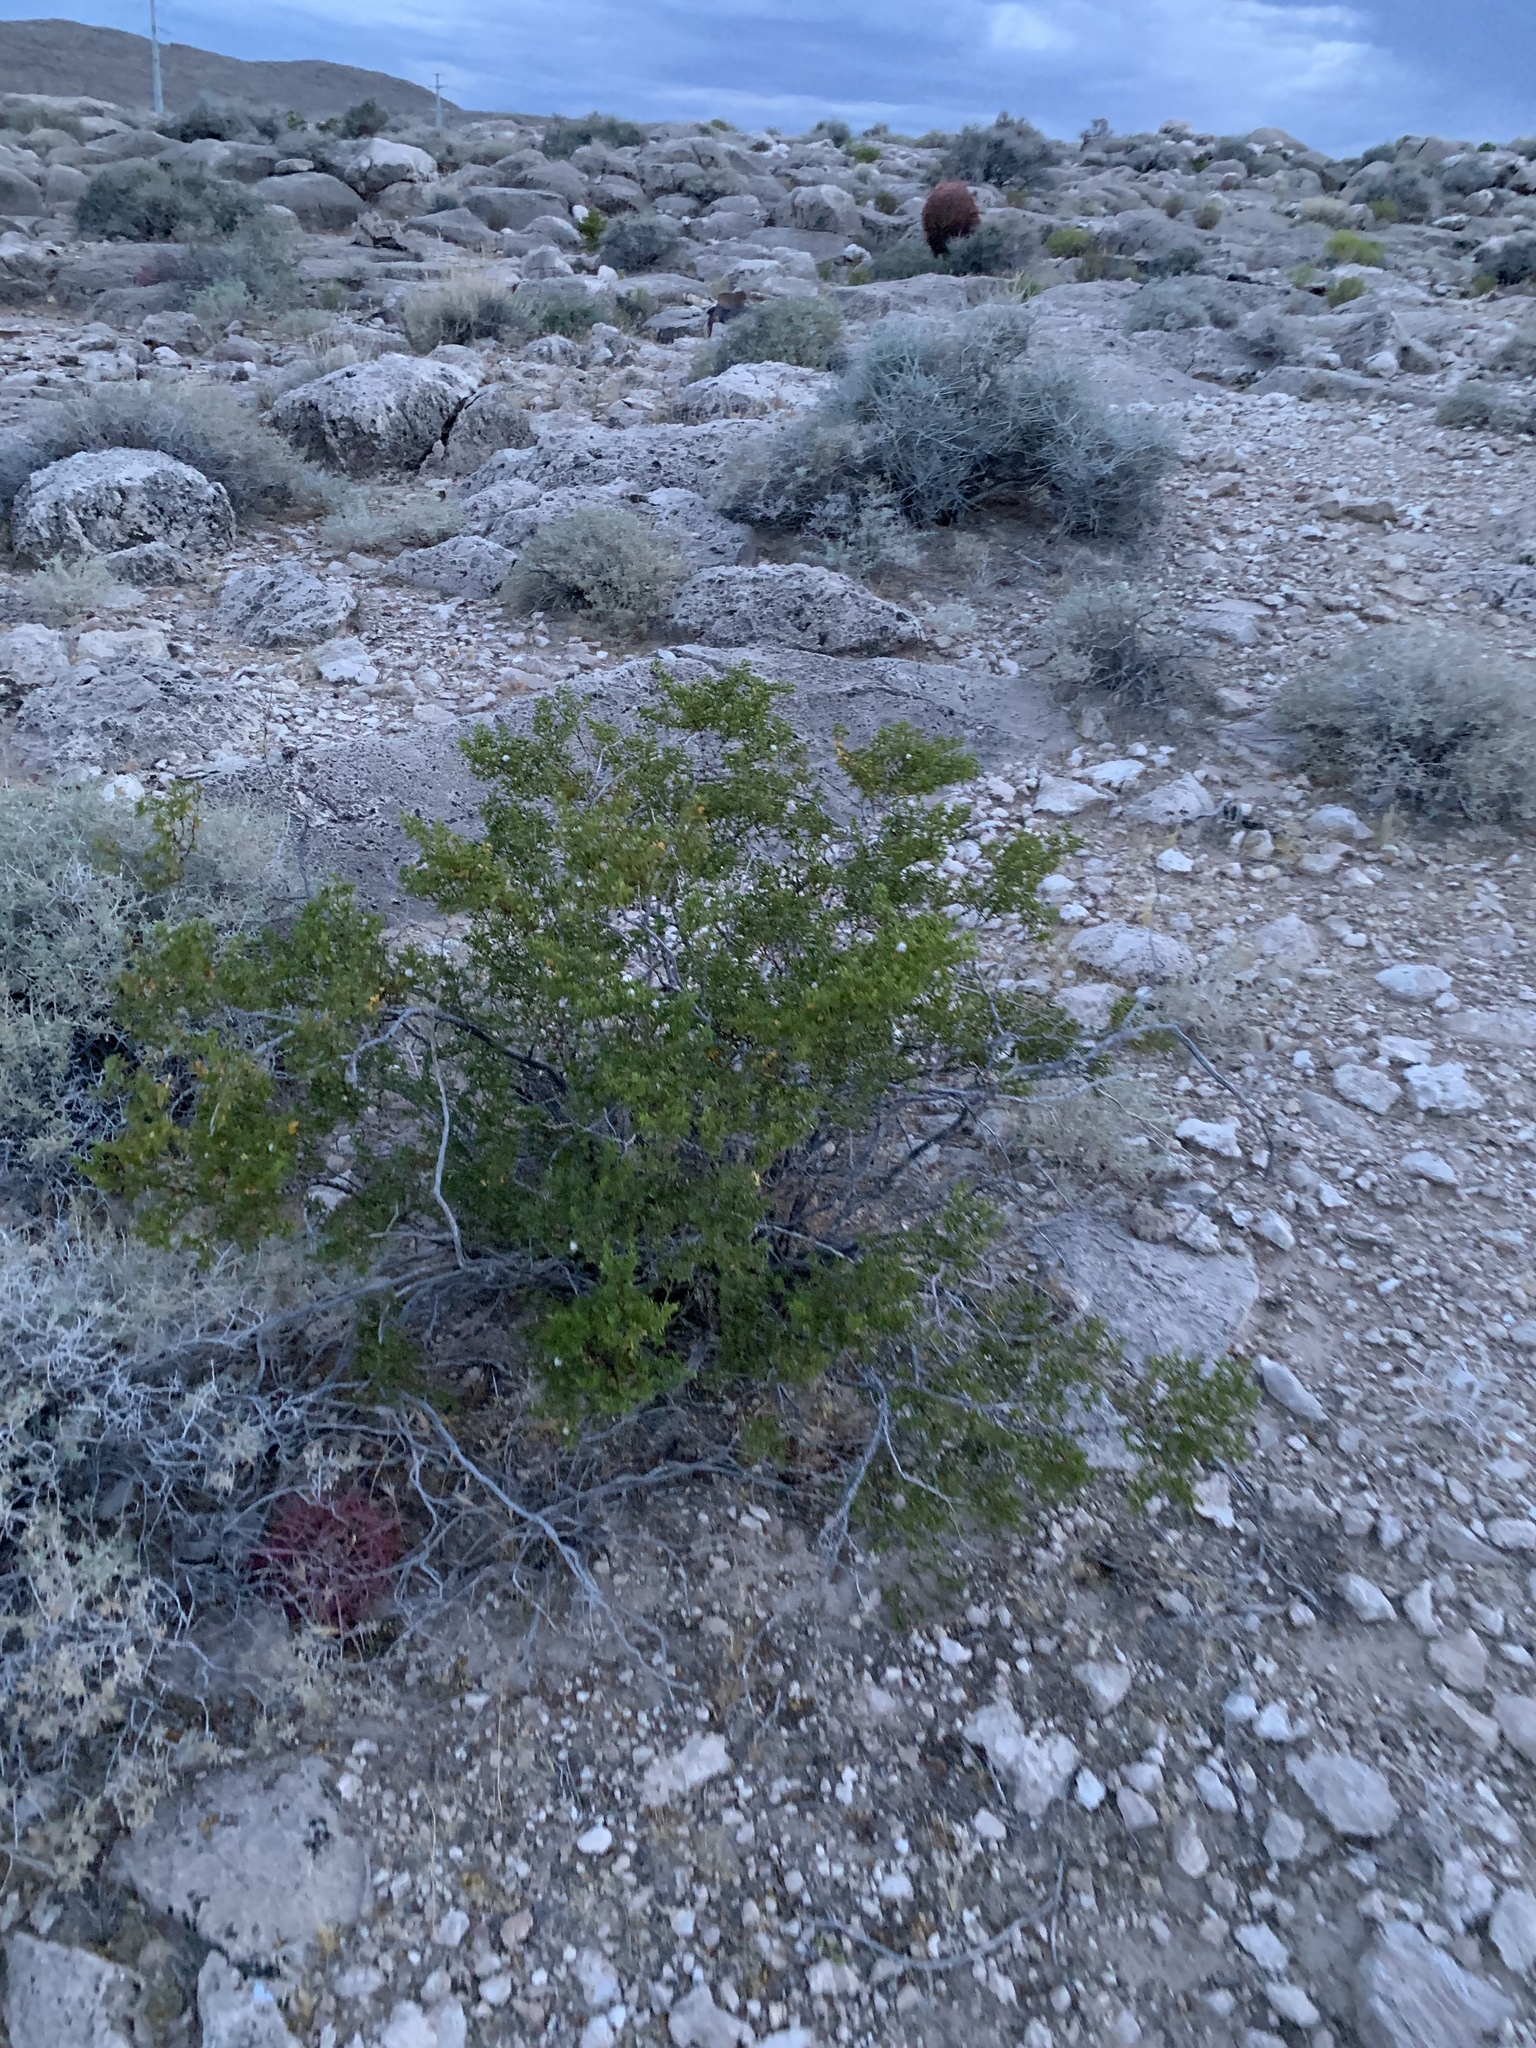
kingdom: Plantae
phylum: Tracheophyta
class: Magnoliopsida
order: Zygophyllales
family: Zygophyllaceae
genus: Larrea
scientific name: Larrea tridentata
